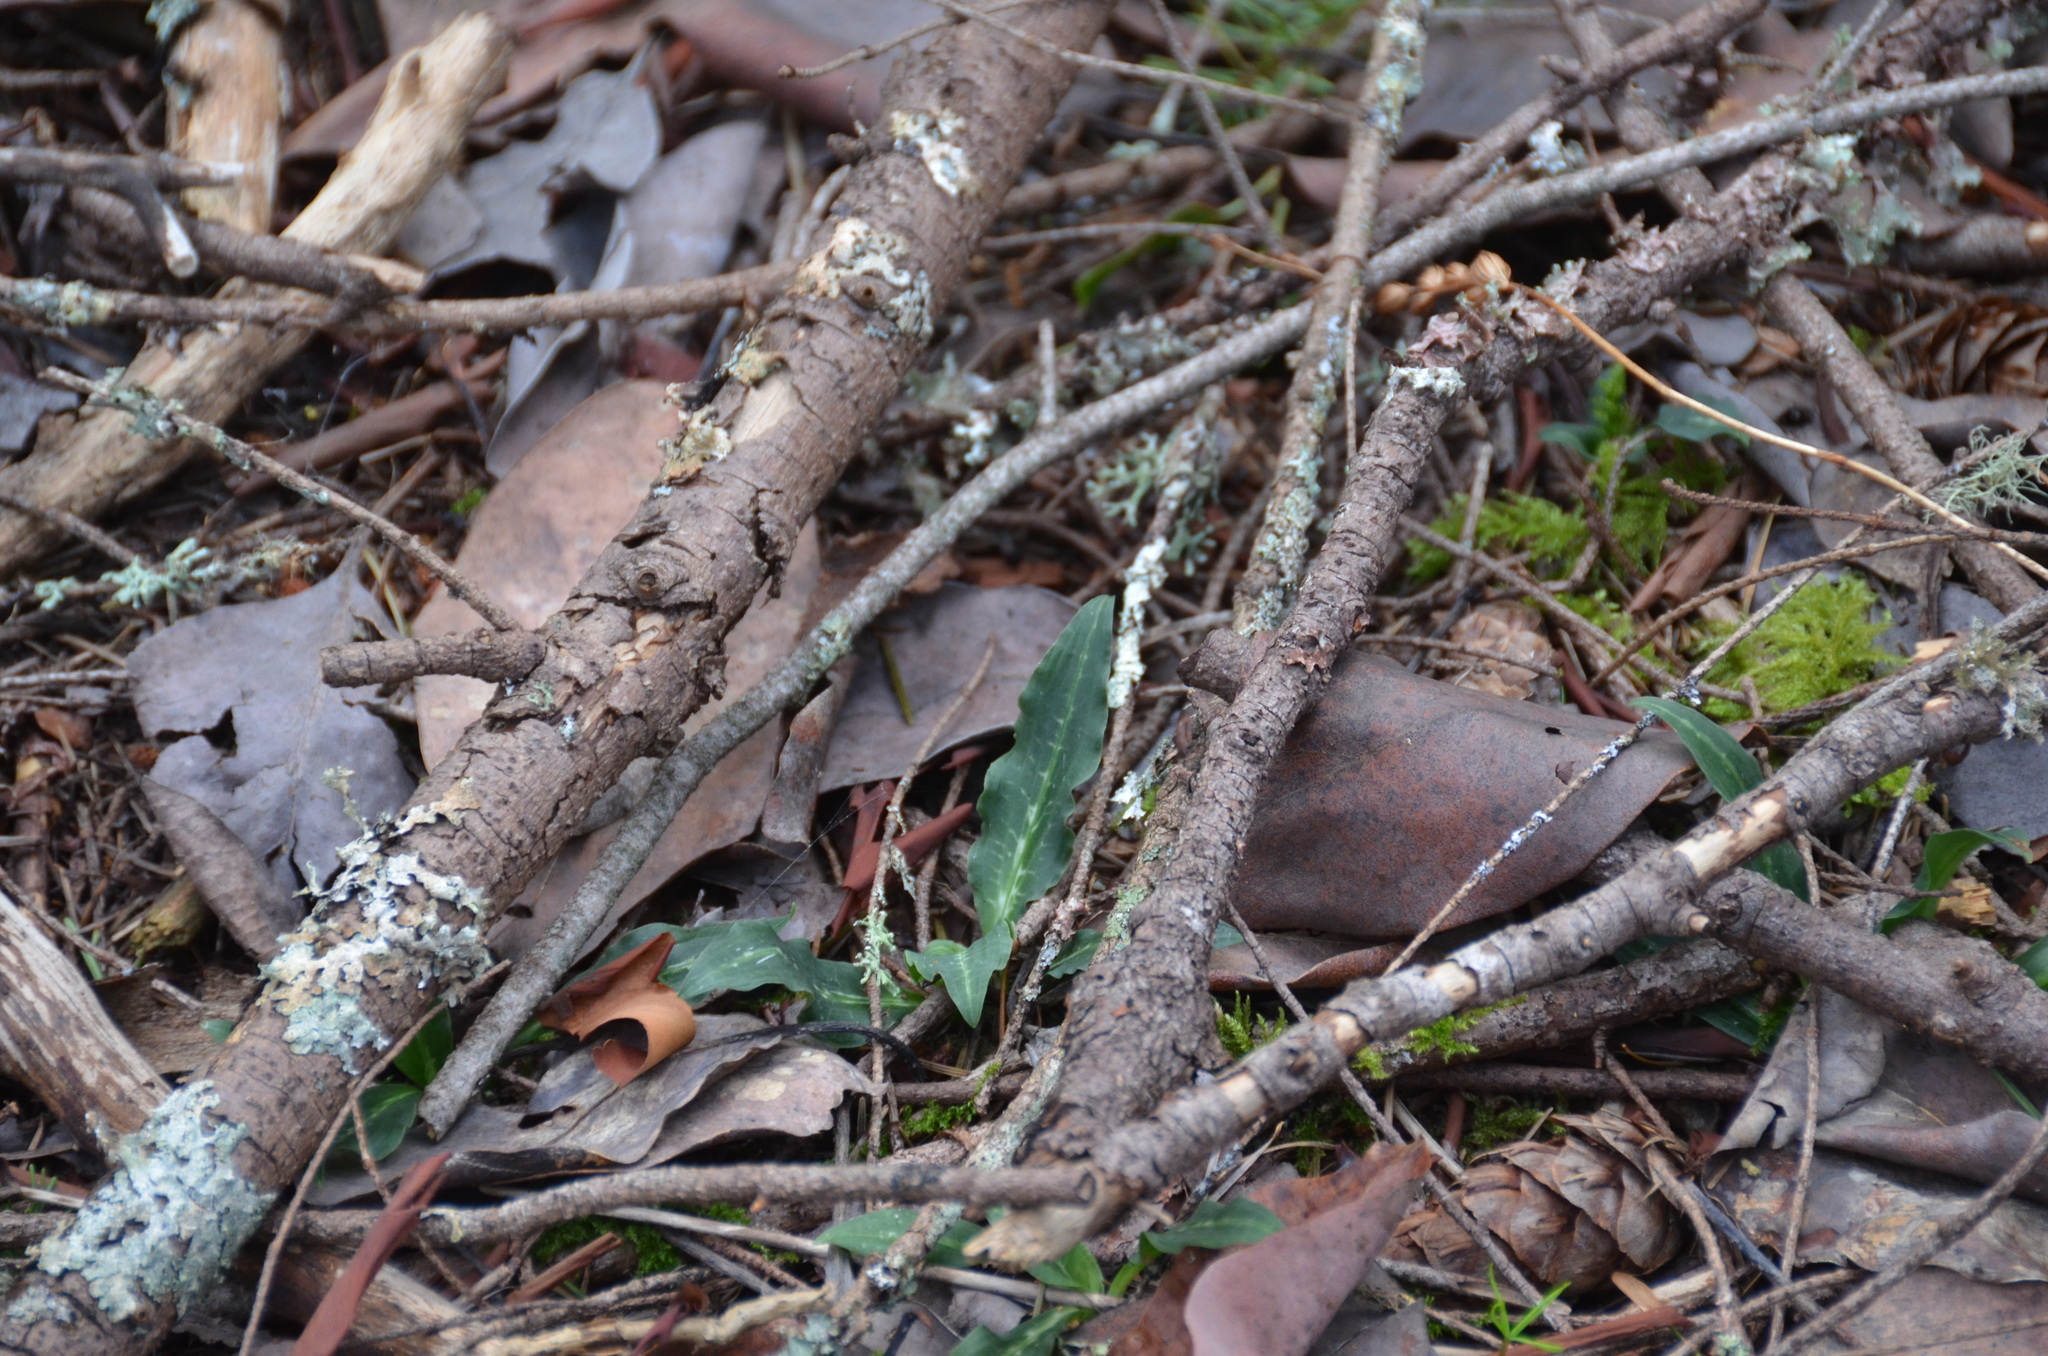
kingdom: Plantae
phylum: Tracheophyta
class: Liliopsida
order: Asparagales
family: Orchidaceae
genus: Goodyera
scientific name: Goodyera oblongifolia
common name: Giant rattlesnake-plantain
